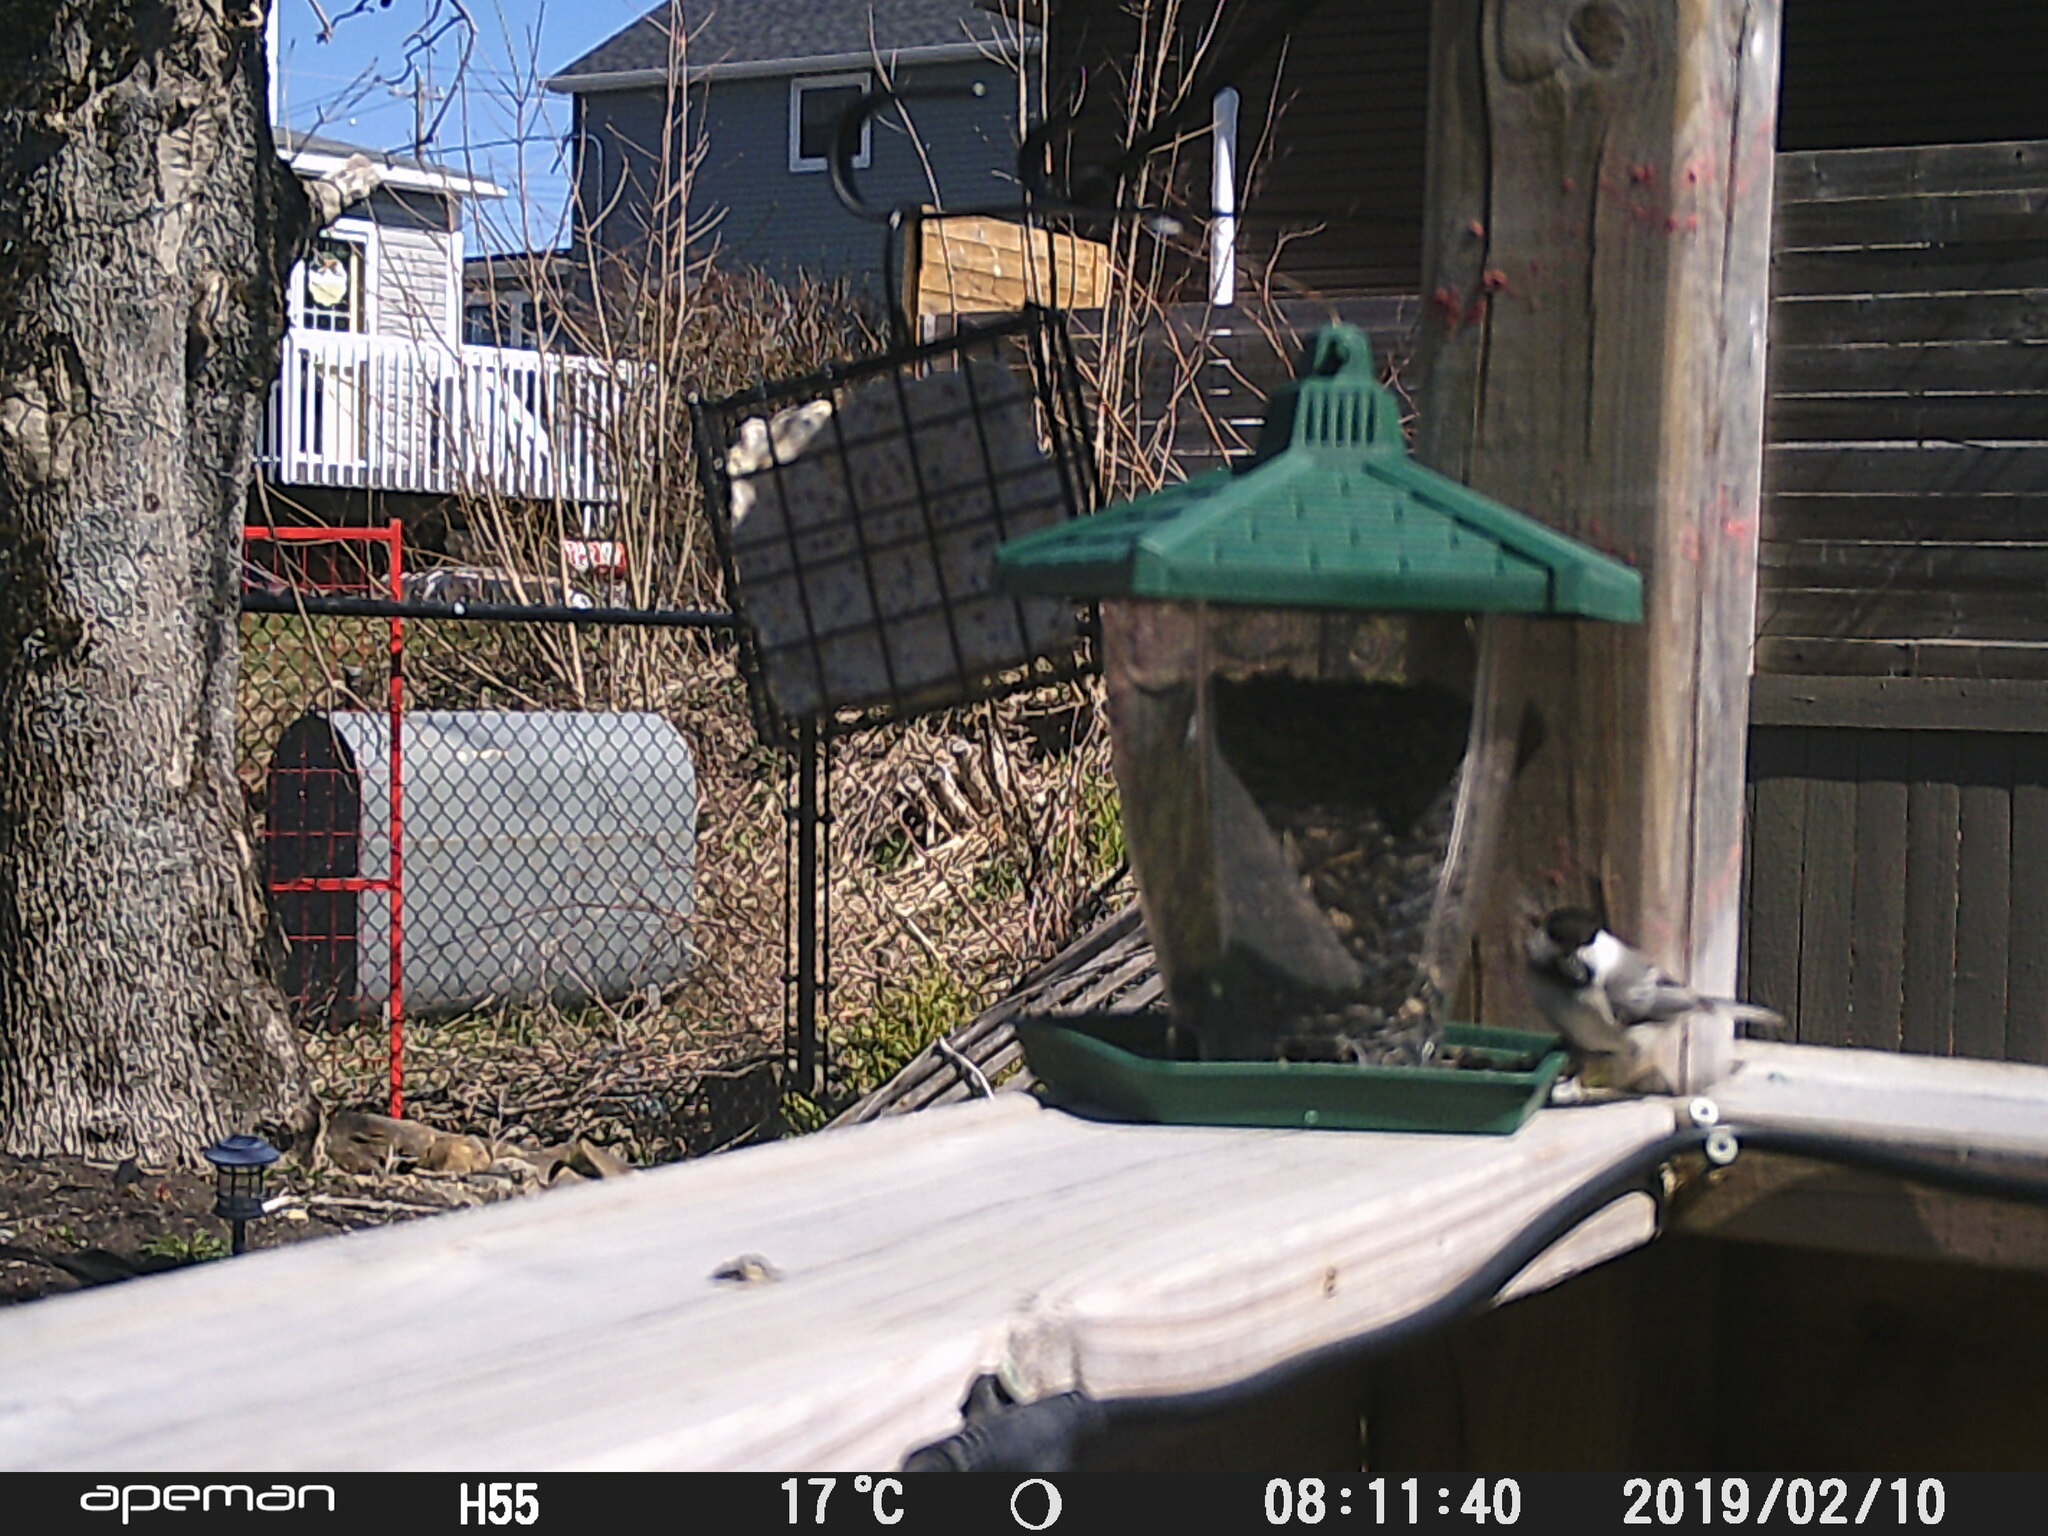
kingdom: Animalia
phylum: Chordata
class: Aves
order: Passeriformes
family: Paridae
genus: Poecile
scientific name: Poecile atricapillus
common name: Black-capped chickadee
